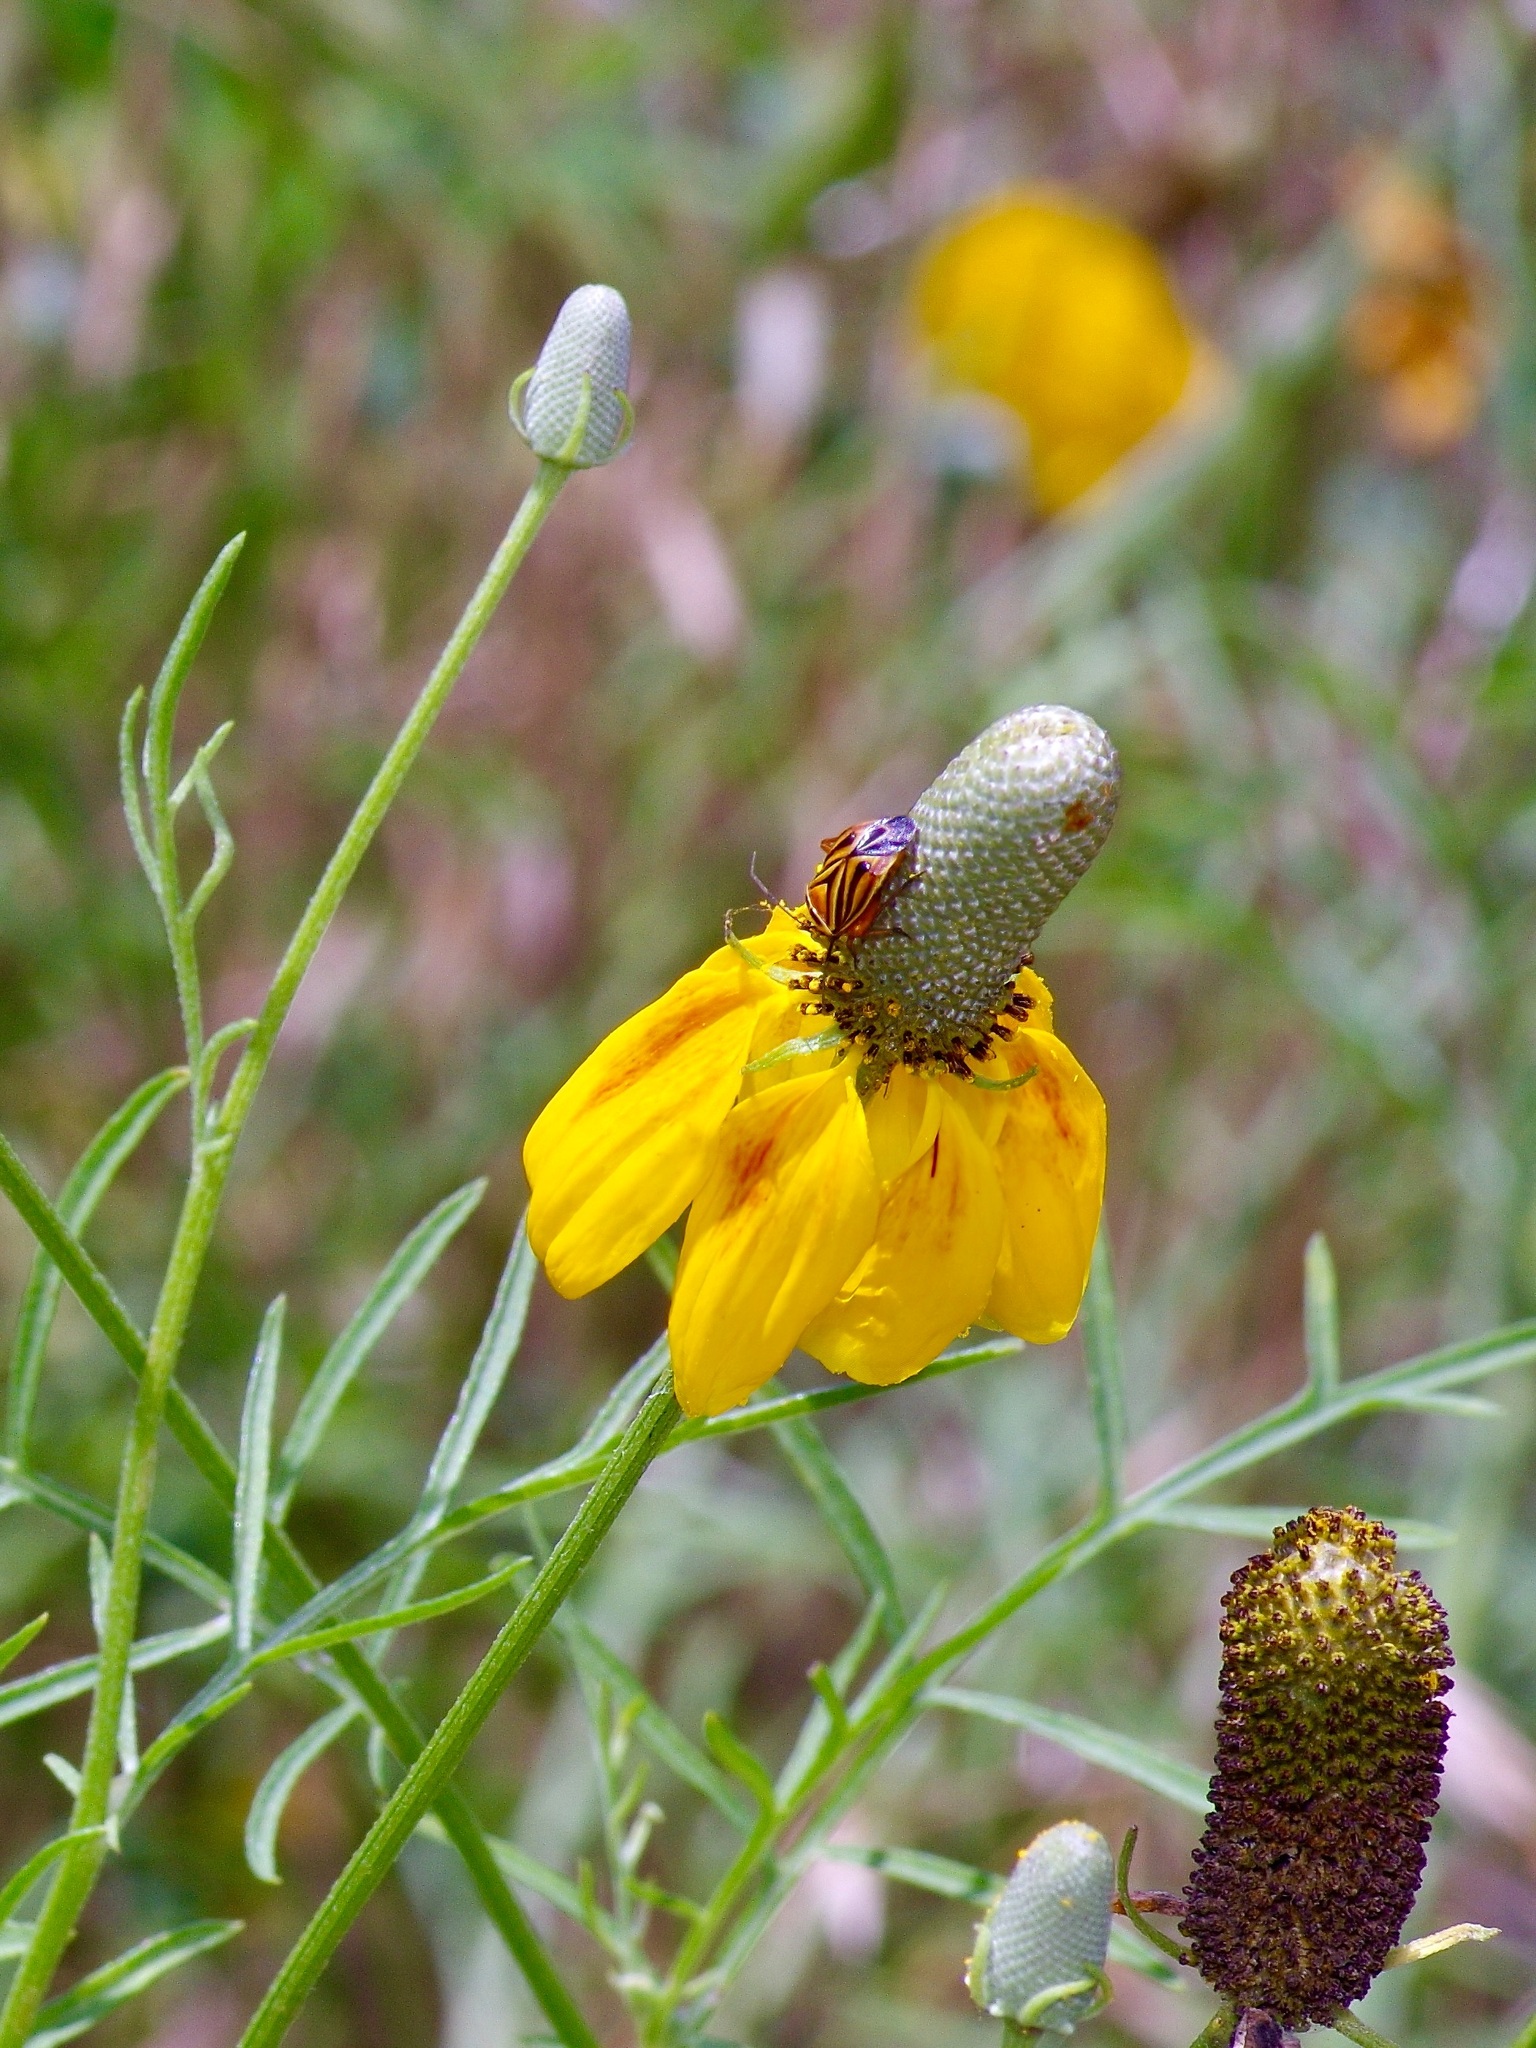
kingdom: Animalia
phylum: Arthropoda
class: Insecta
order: Hemiptera
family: Miridae
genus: Calocoris
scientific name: Calocoris barberi
